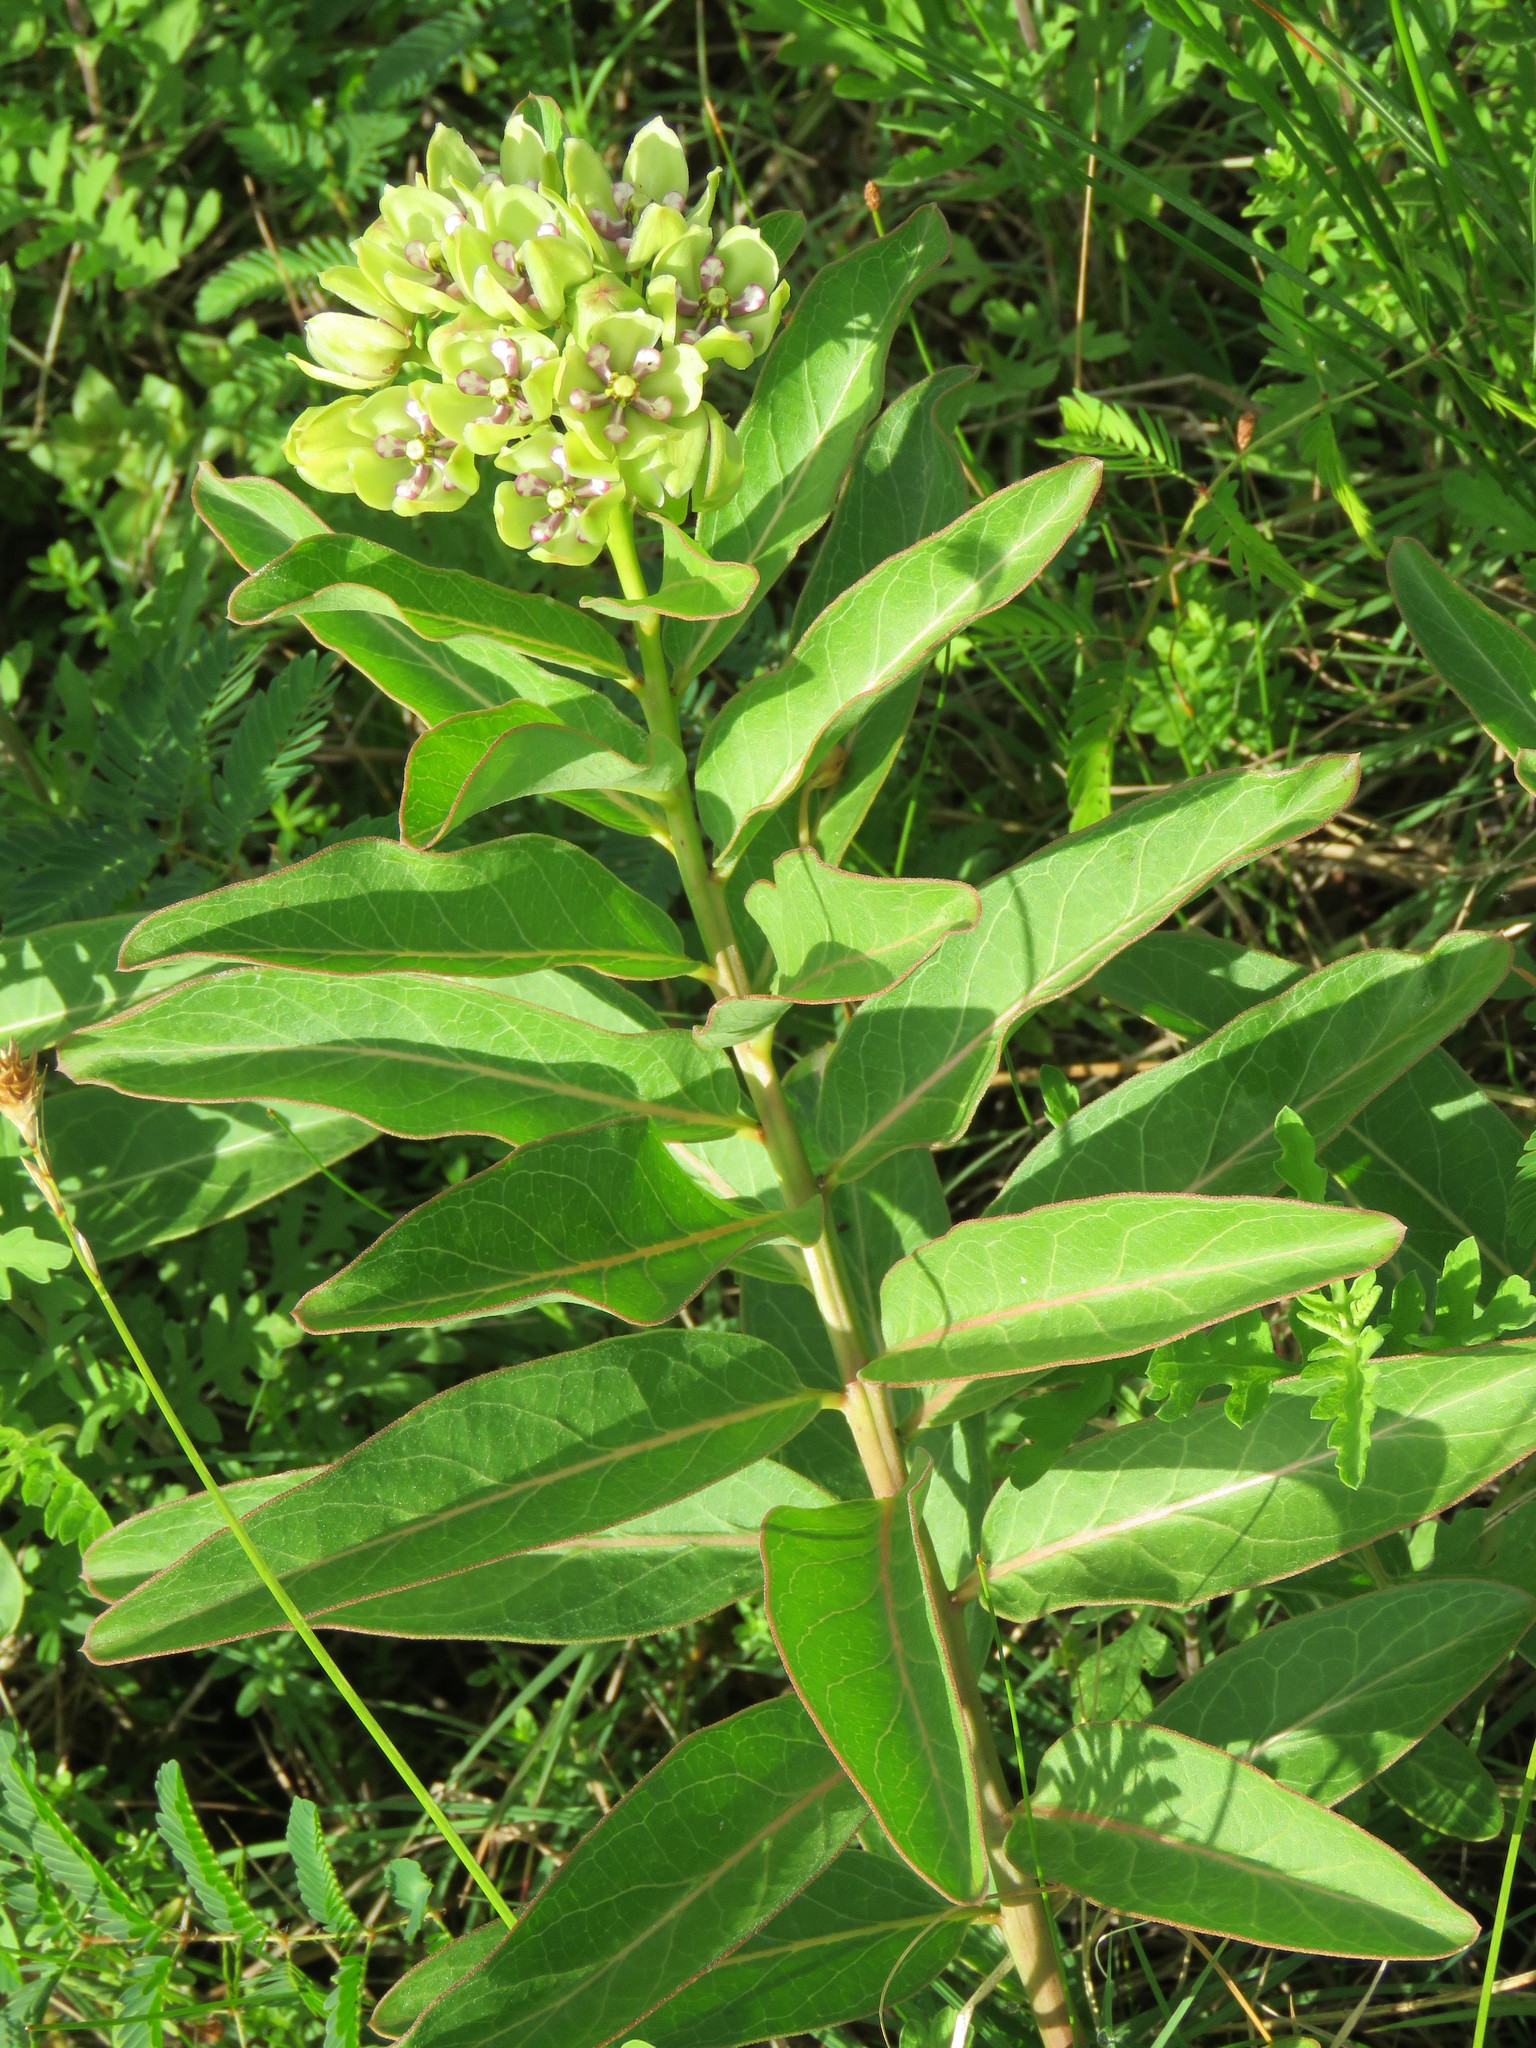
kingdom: Plantae
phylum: Tracheophyta
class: Magnoliopsida
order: Gentianales
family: Apocynaceae
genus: Asclepias
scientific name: Asclepias viridis
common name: Antelope-horns
